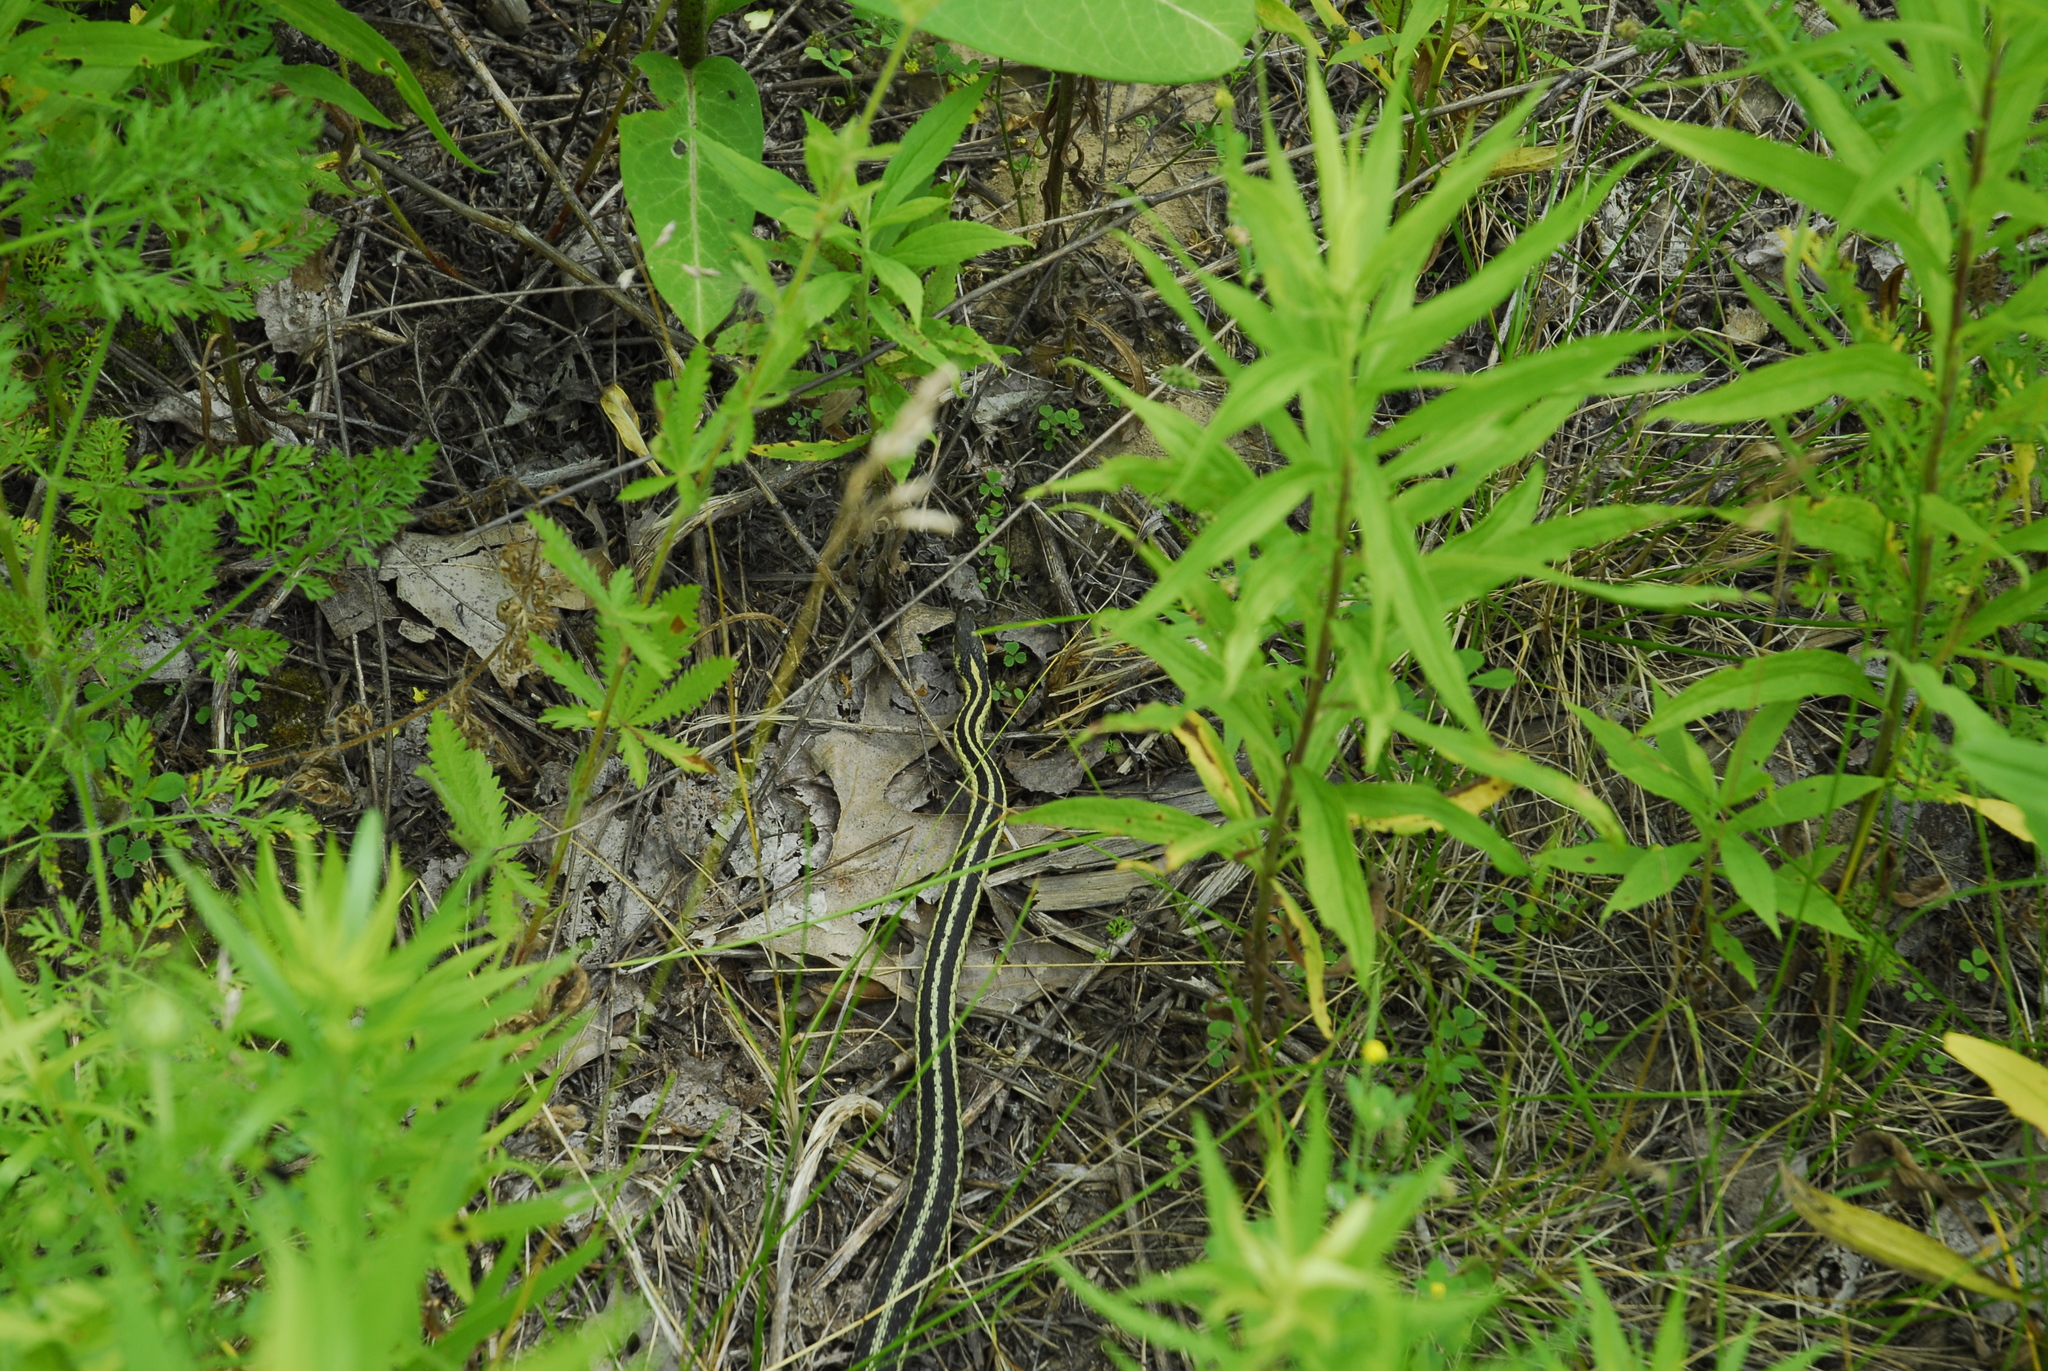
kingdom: Animalia
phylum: Chordata
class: Squamata
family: Colubridae
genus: Thamnophis
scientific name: Thamnophis sirtalis
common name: Common garter snake
